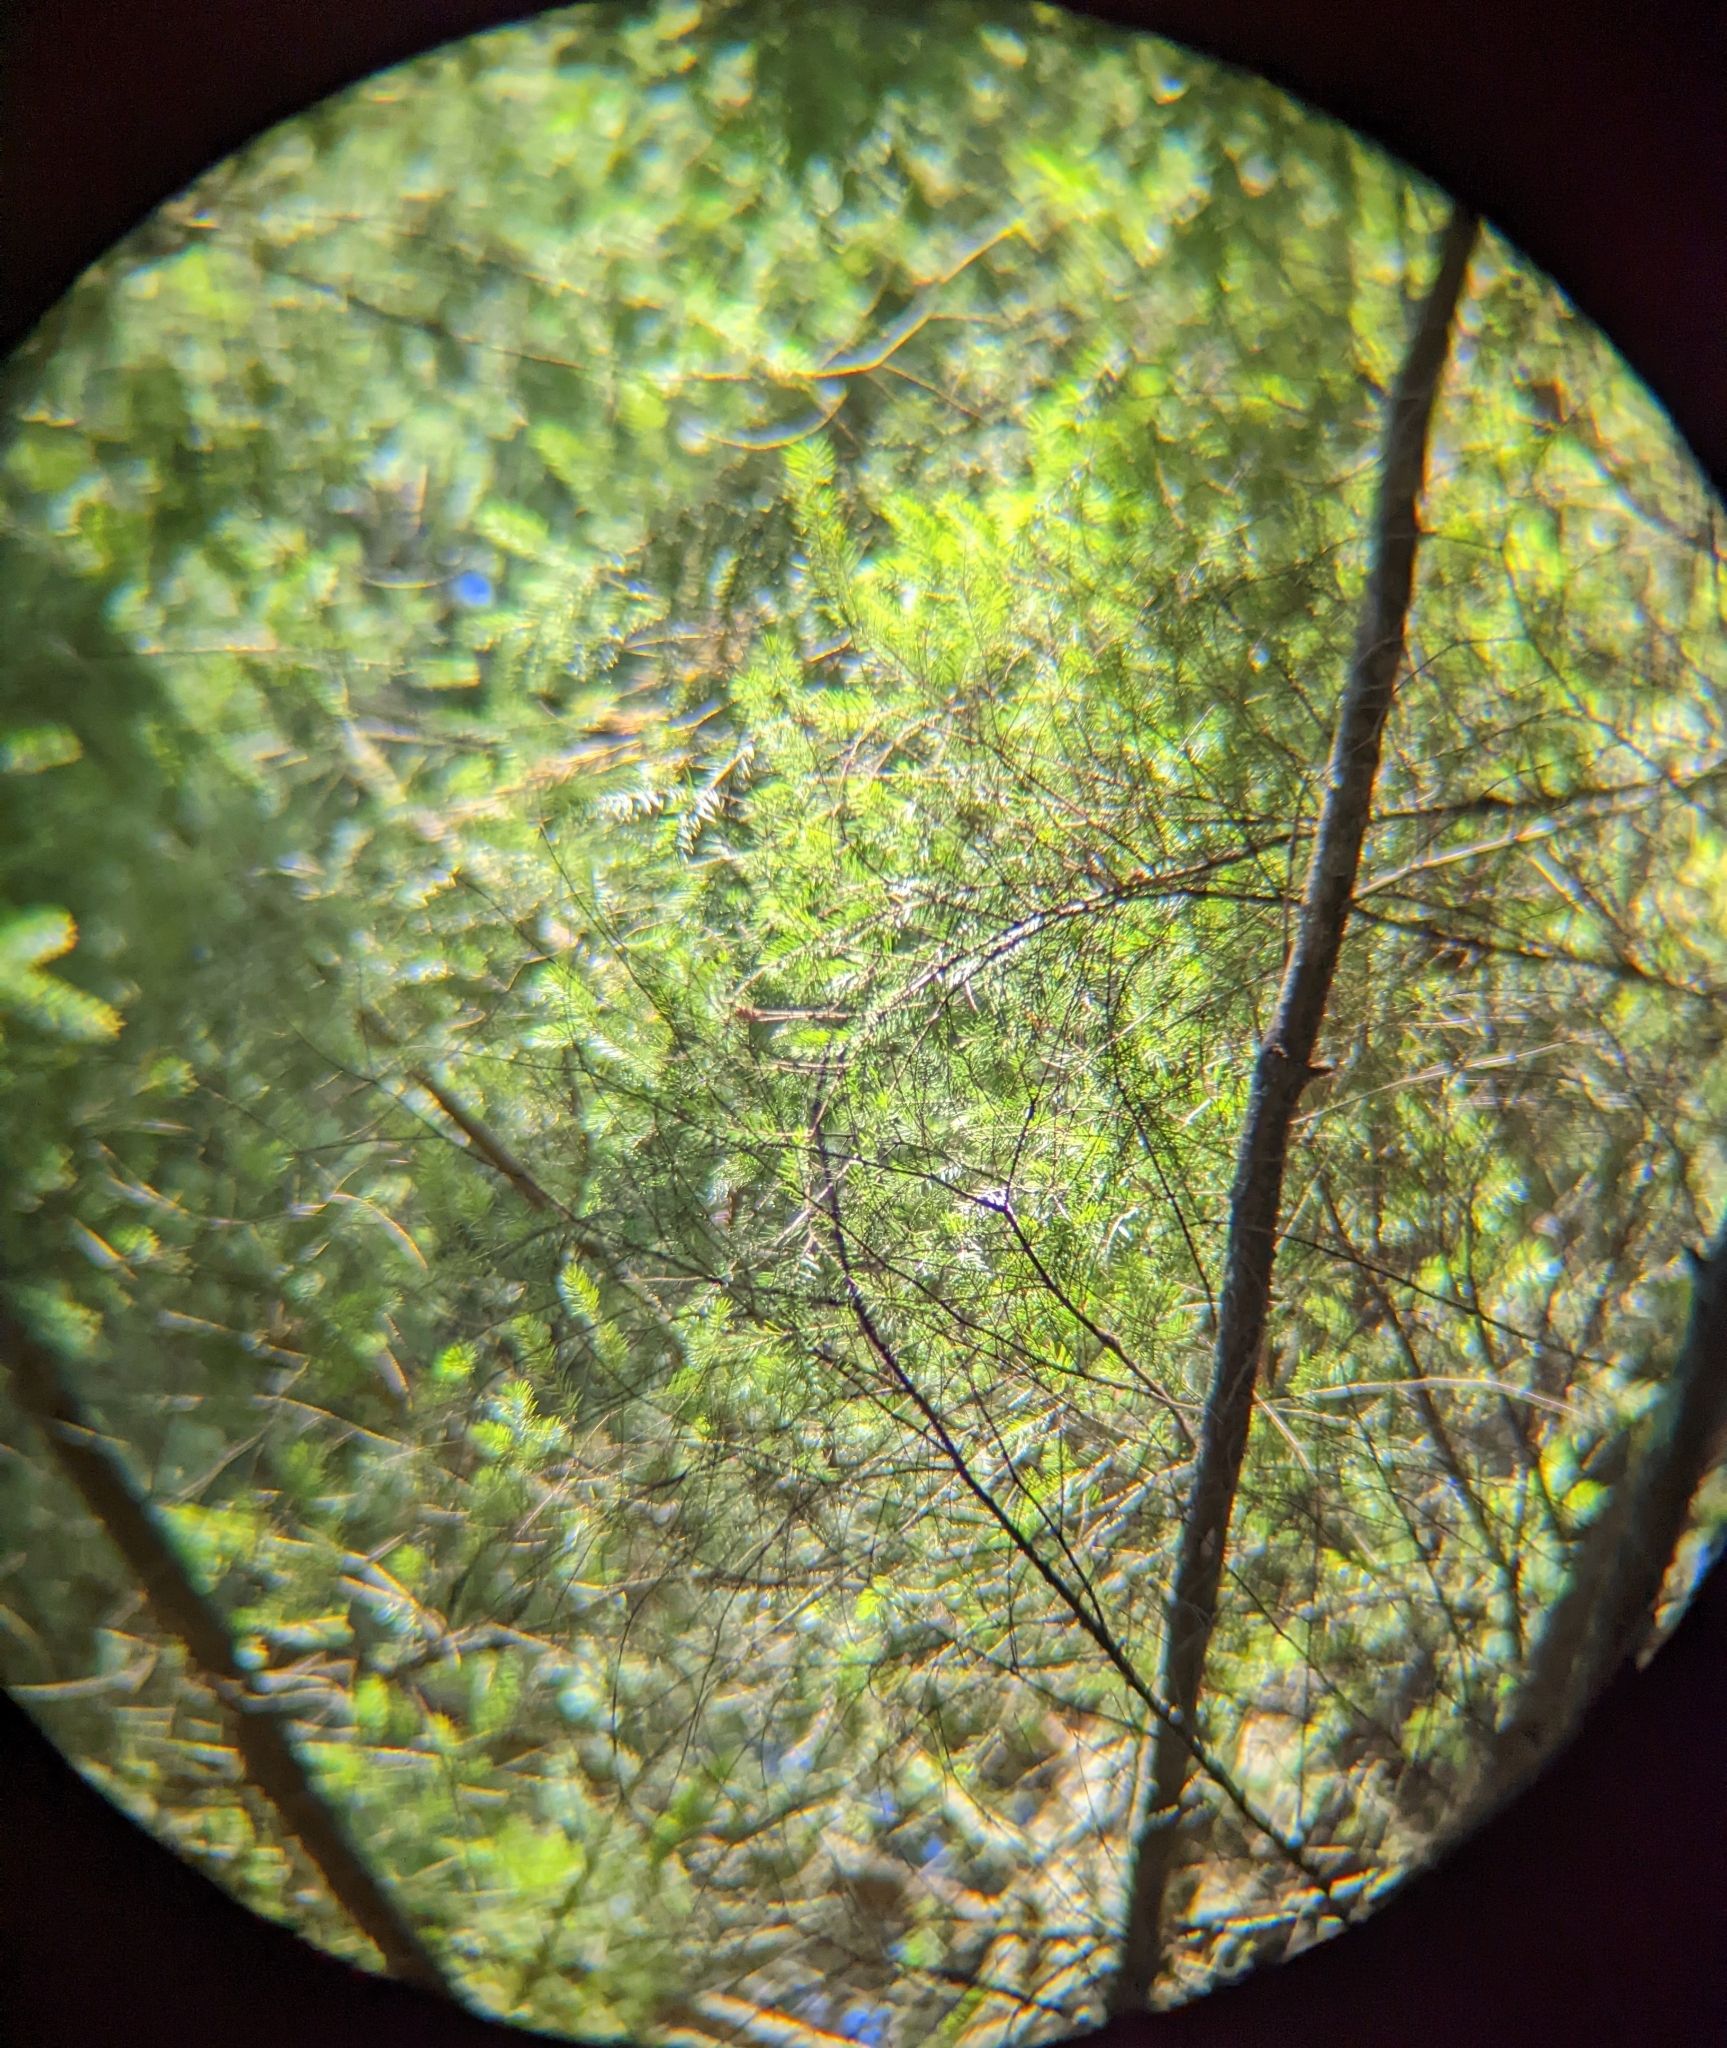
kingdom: Plantae
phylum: Tracheophyta
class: Pinopsida
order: Pinales
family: Pinaceae
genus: Pseudotsuga
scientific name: Pseudotsuga menziesii
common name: Douglas fir
